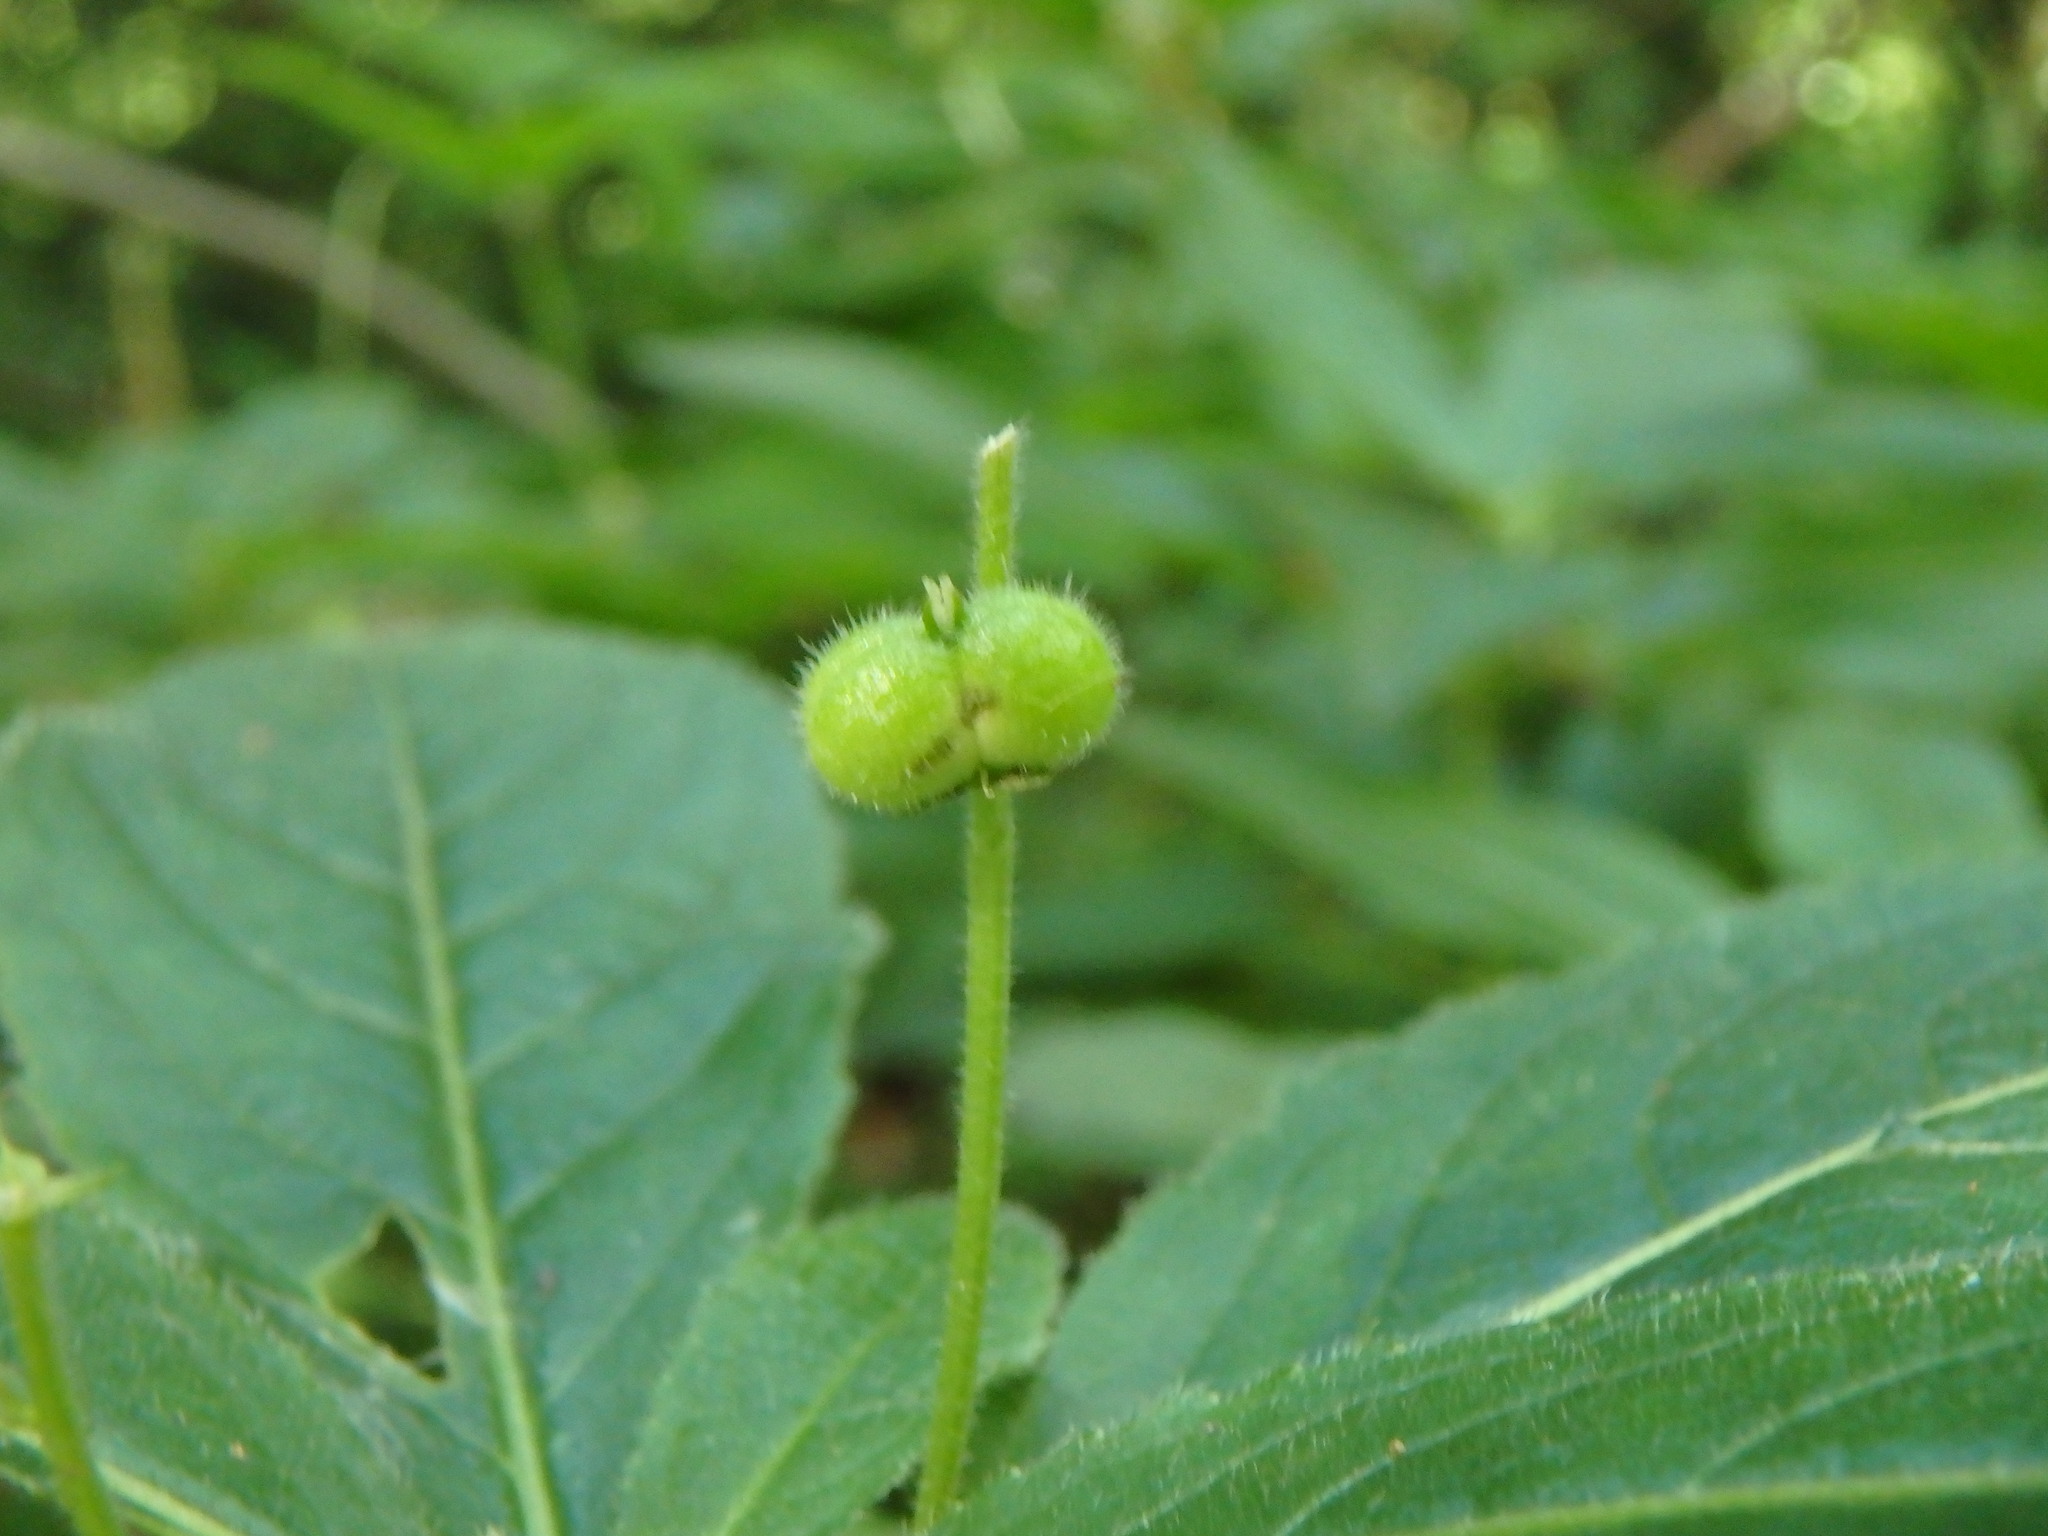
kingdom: Plantae
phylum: Tracheophyta
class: Magnoliopsida
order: Malpighiales
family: Euphorbiaceae
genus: Mercurialis
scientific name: Mercurialis perennis
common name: Dog mercury
